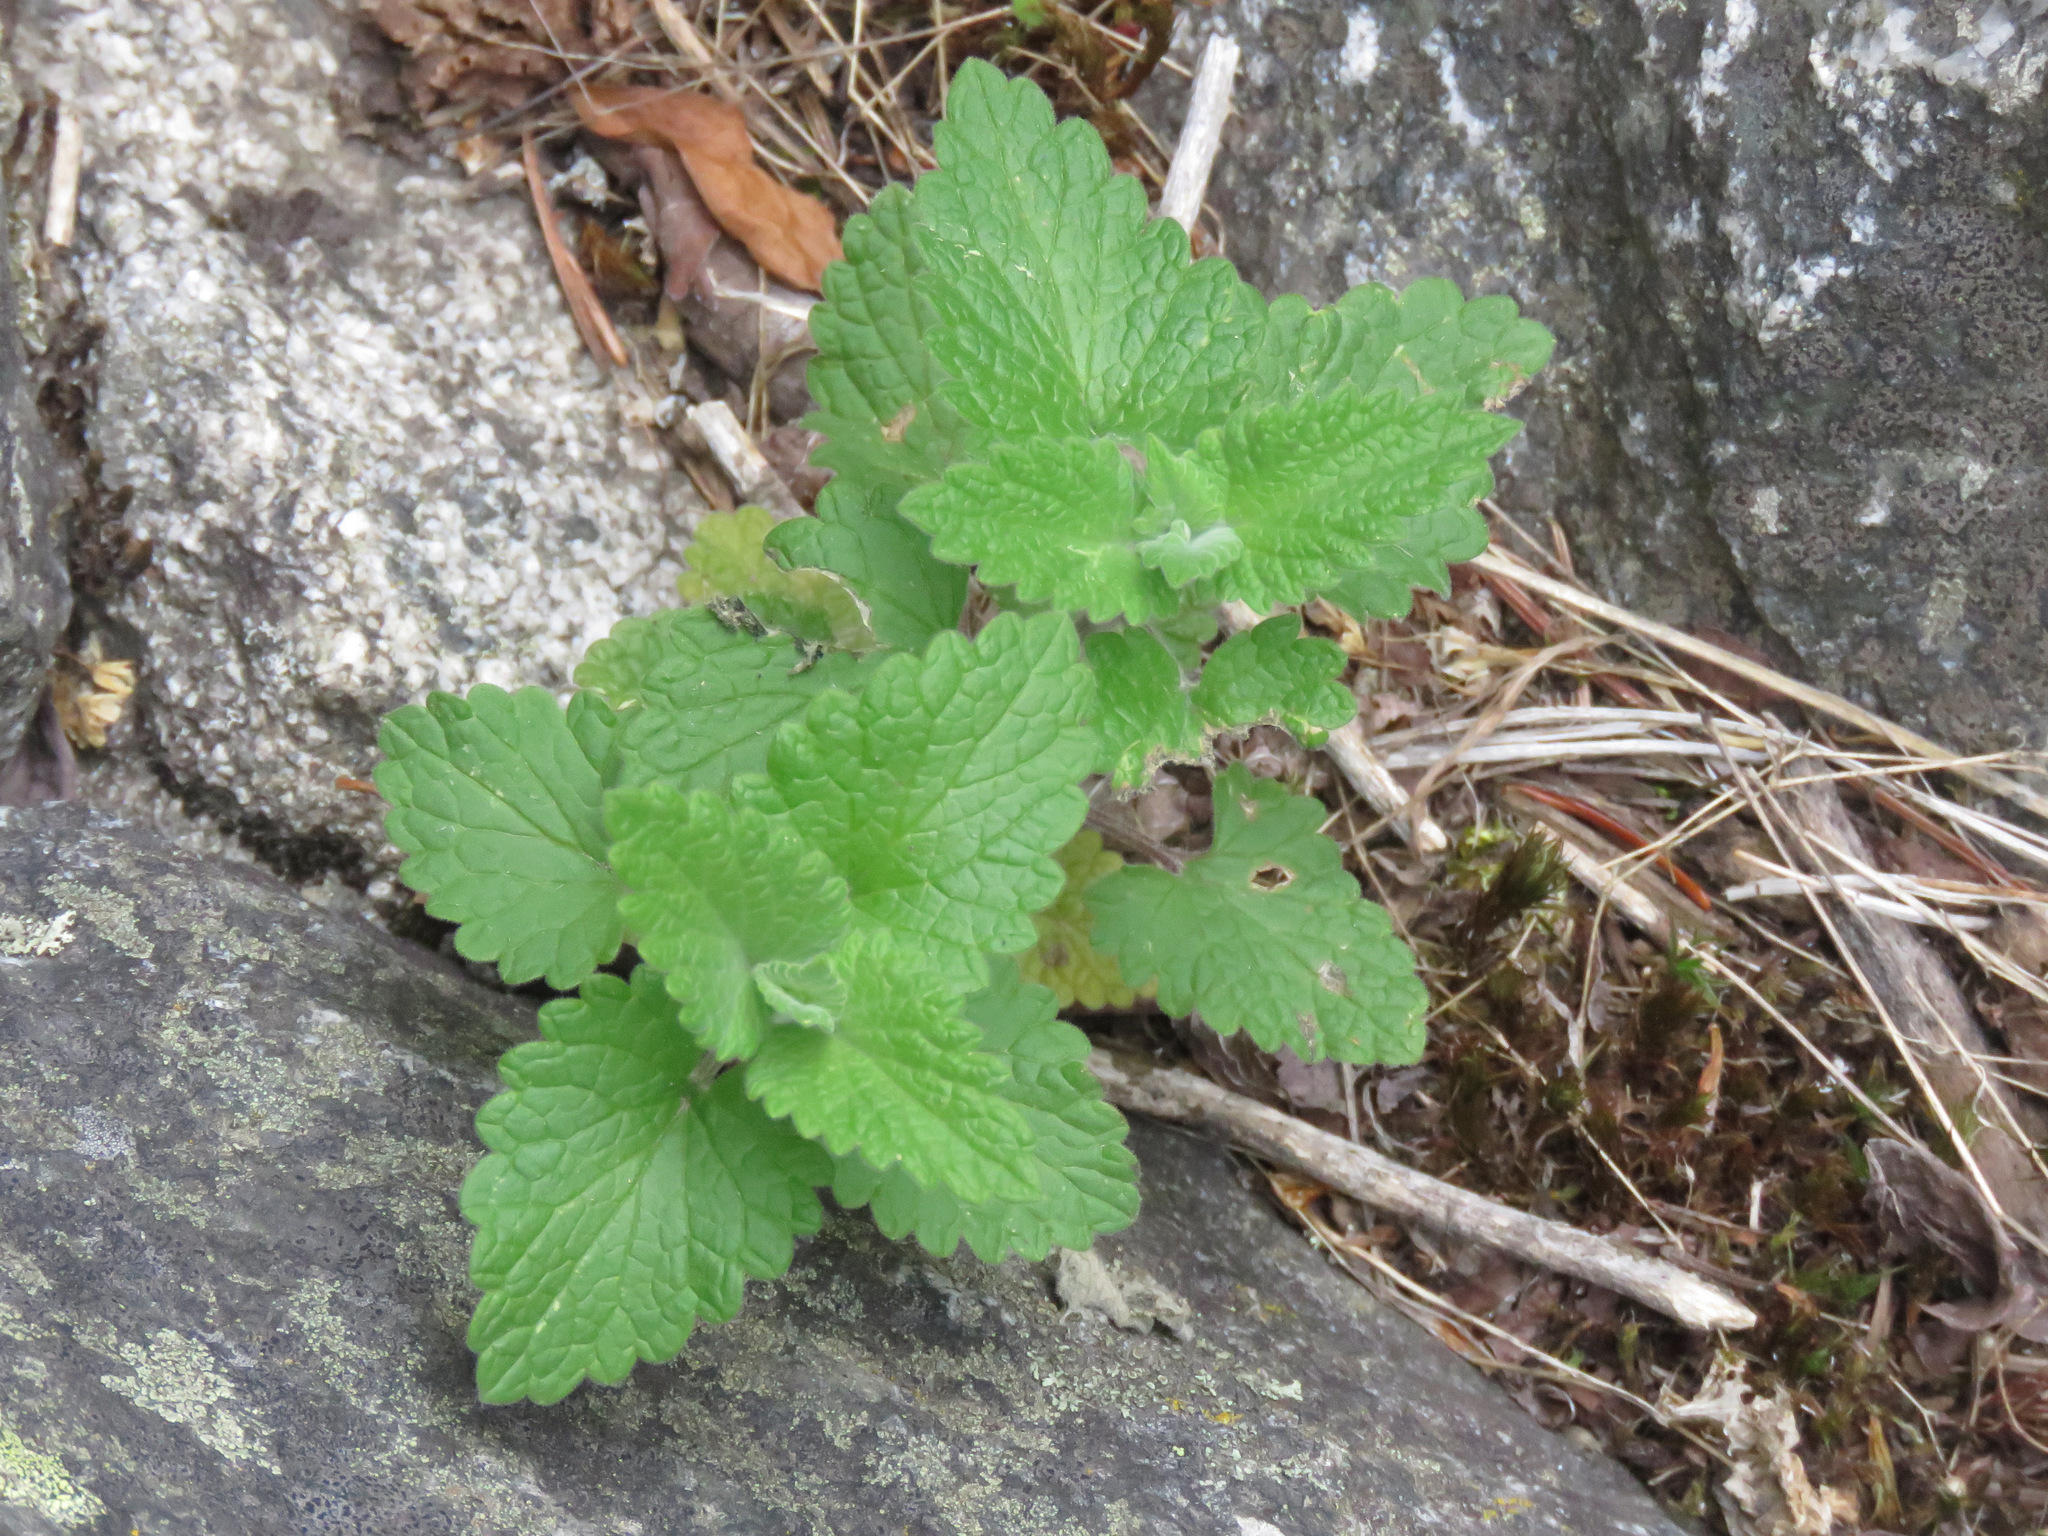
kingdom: Plantae
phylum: Tracheophyta
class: Magnoliopsida
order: Lamiales
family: Lamiaceae
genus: Nepeta
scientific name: Nepeta cataria
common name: Catnip
